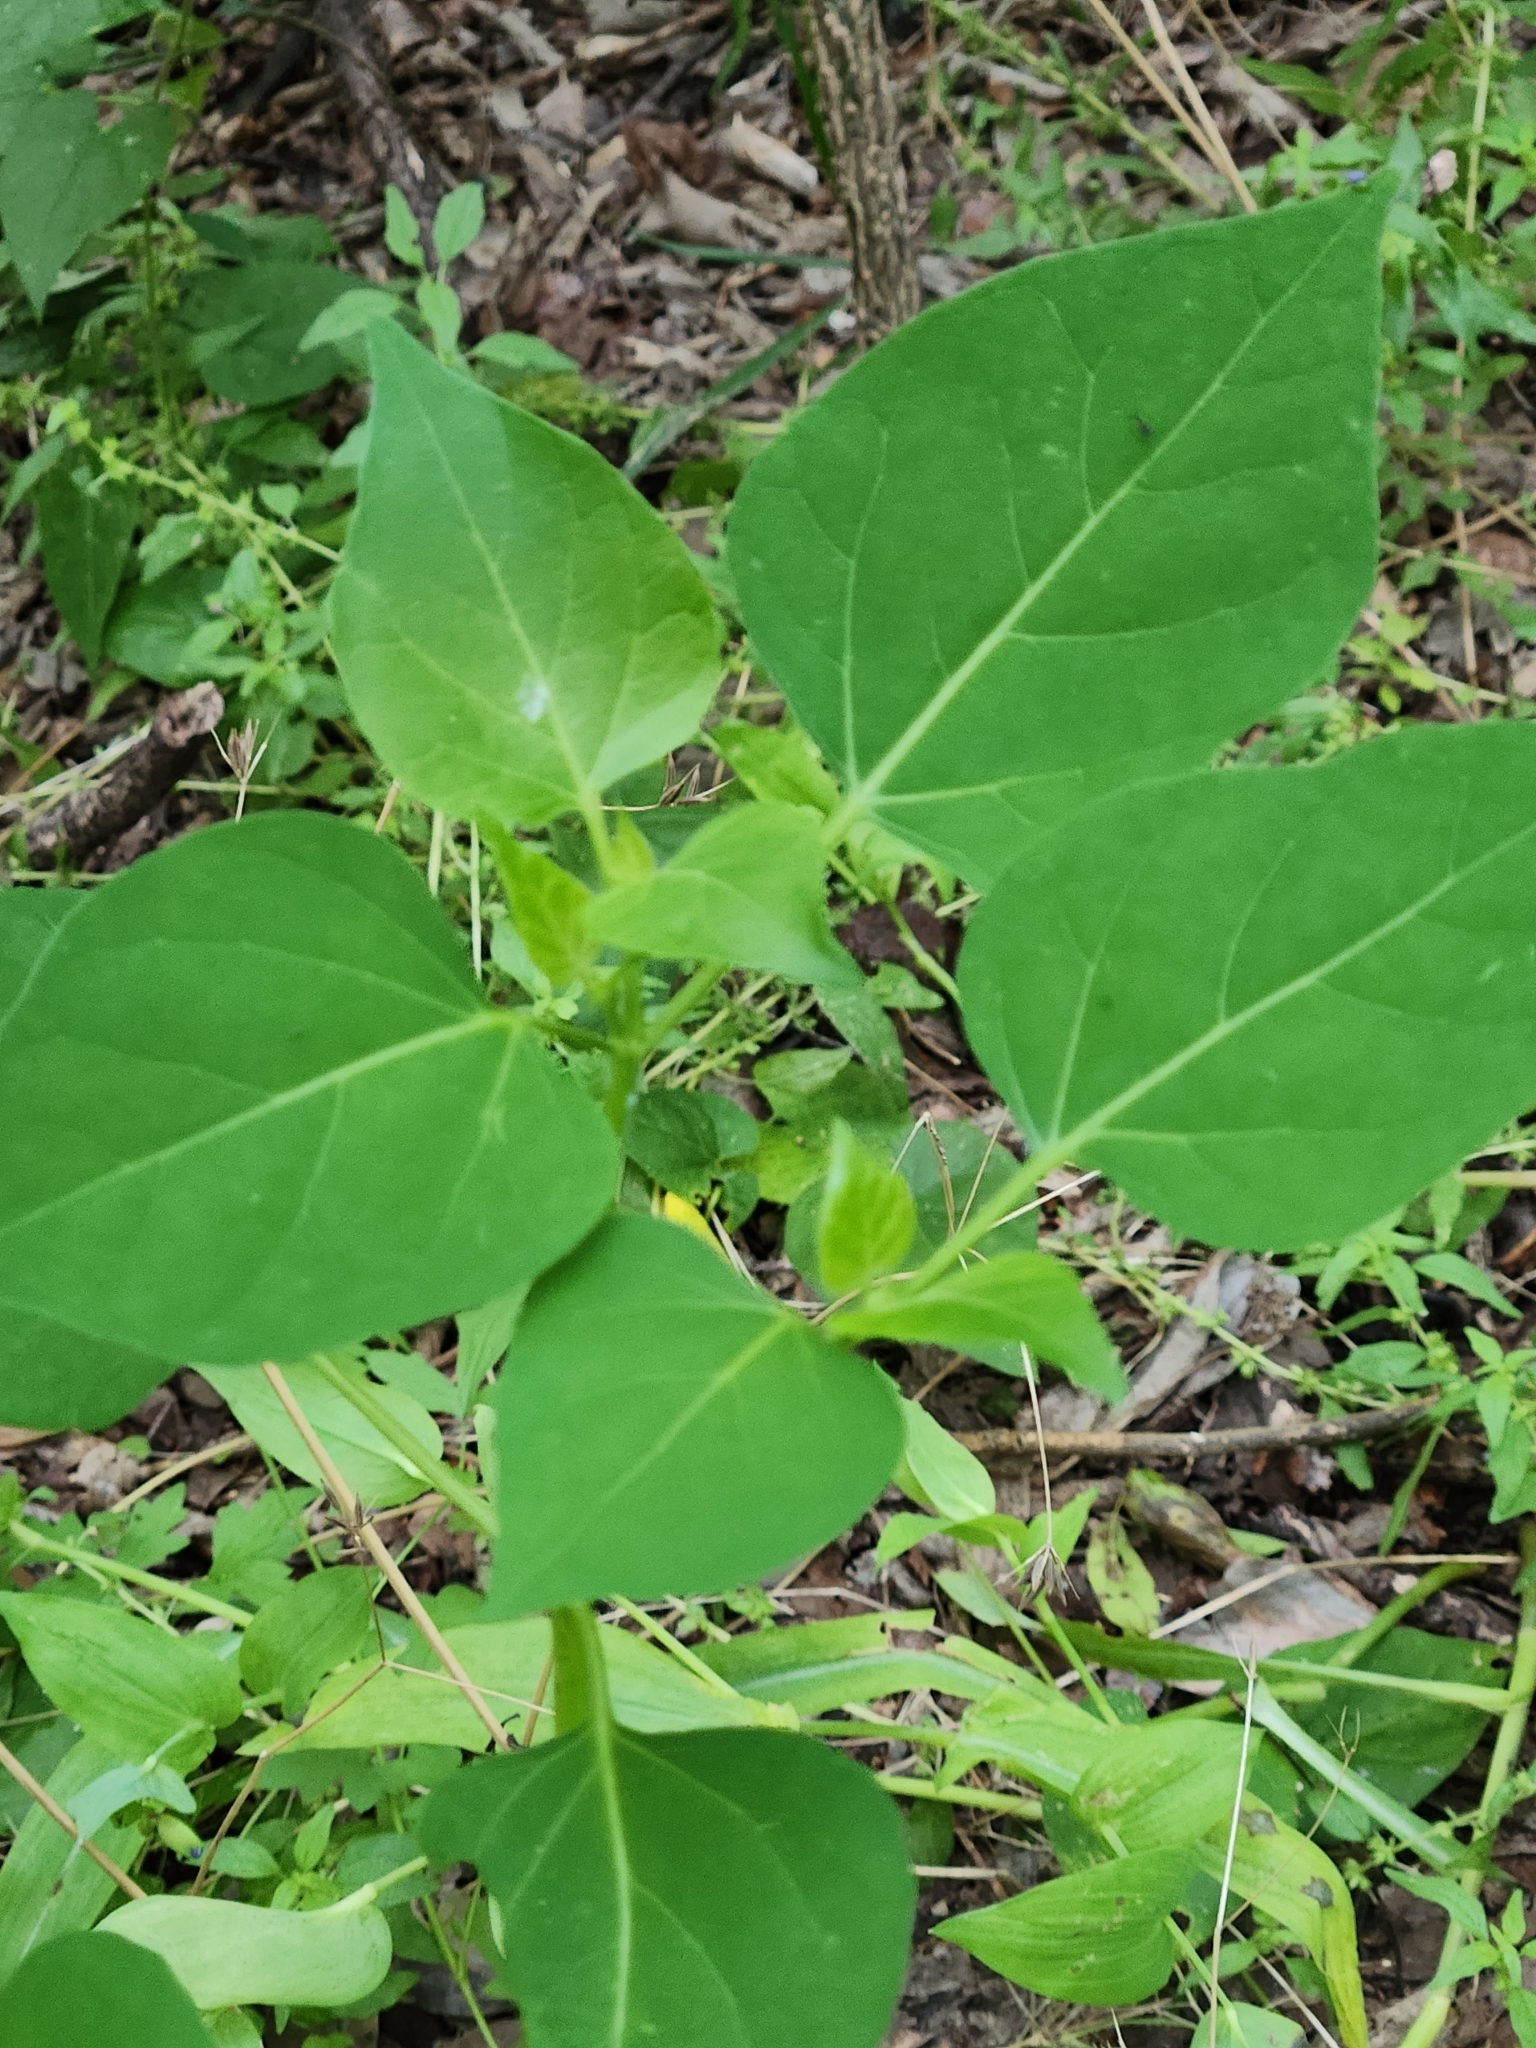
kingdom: Plantae
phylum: Tracheophyta
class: Magnoliopsida
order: Caryophyllales
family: Nyctaginaceae
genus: Mirabilis
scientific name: Mirabilis jalapa
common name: Marvel-of-peru
